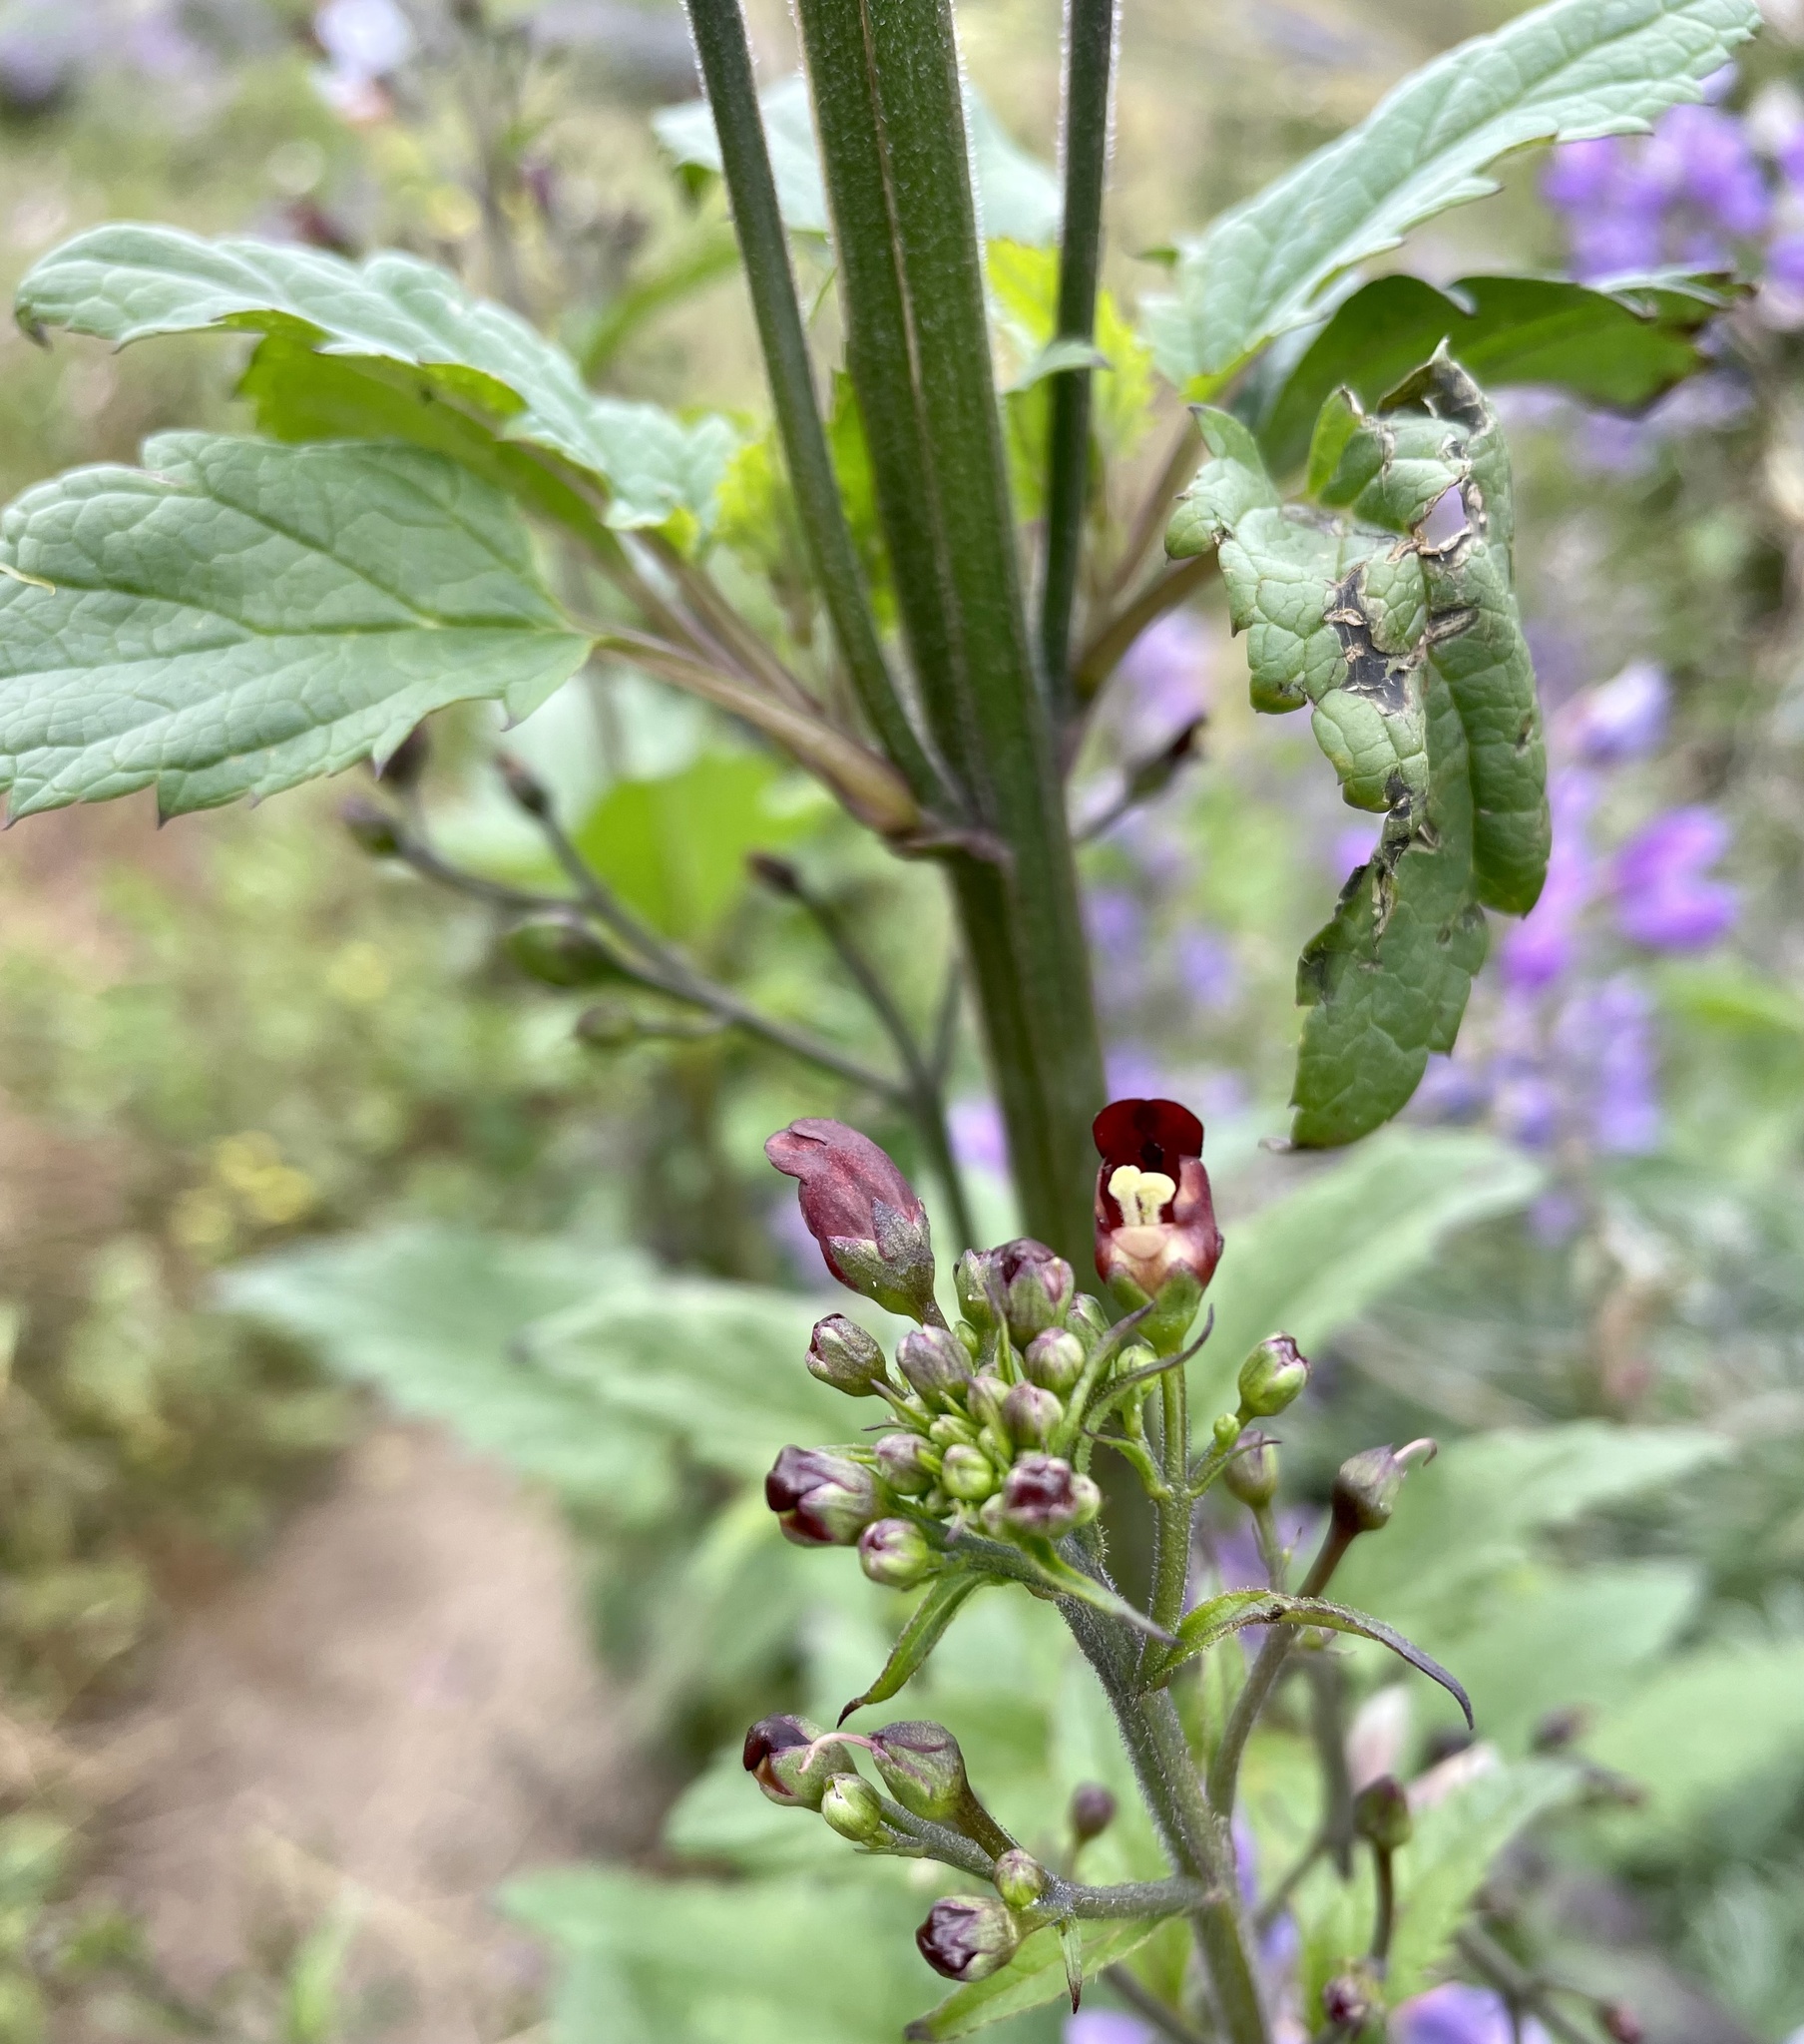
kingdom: Plantae
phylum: Tracheophyta
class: Magnoliopsida
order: Lamiales
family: Scrophulariaceae
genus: Scrophularia
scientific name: Scrophularia californica
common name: California figwort
